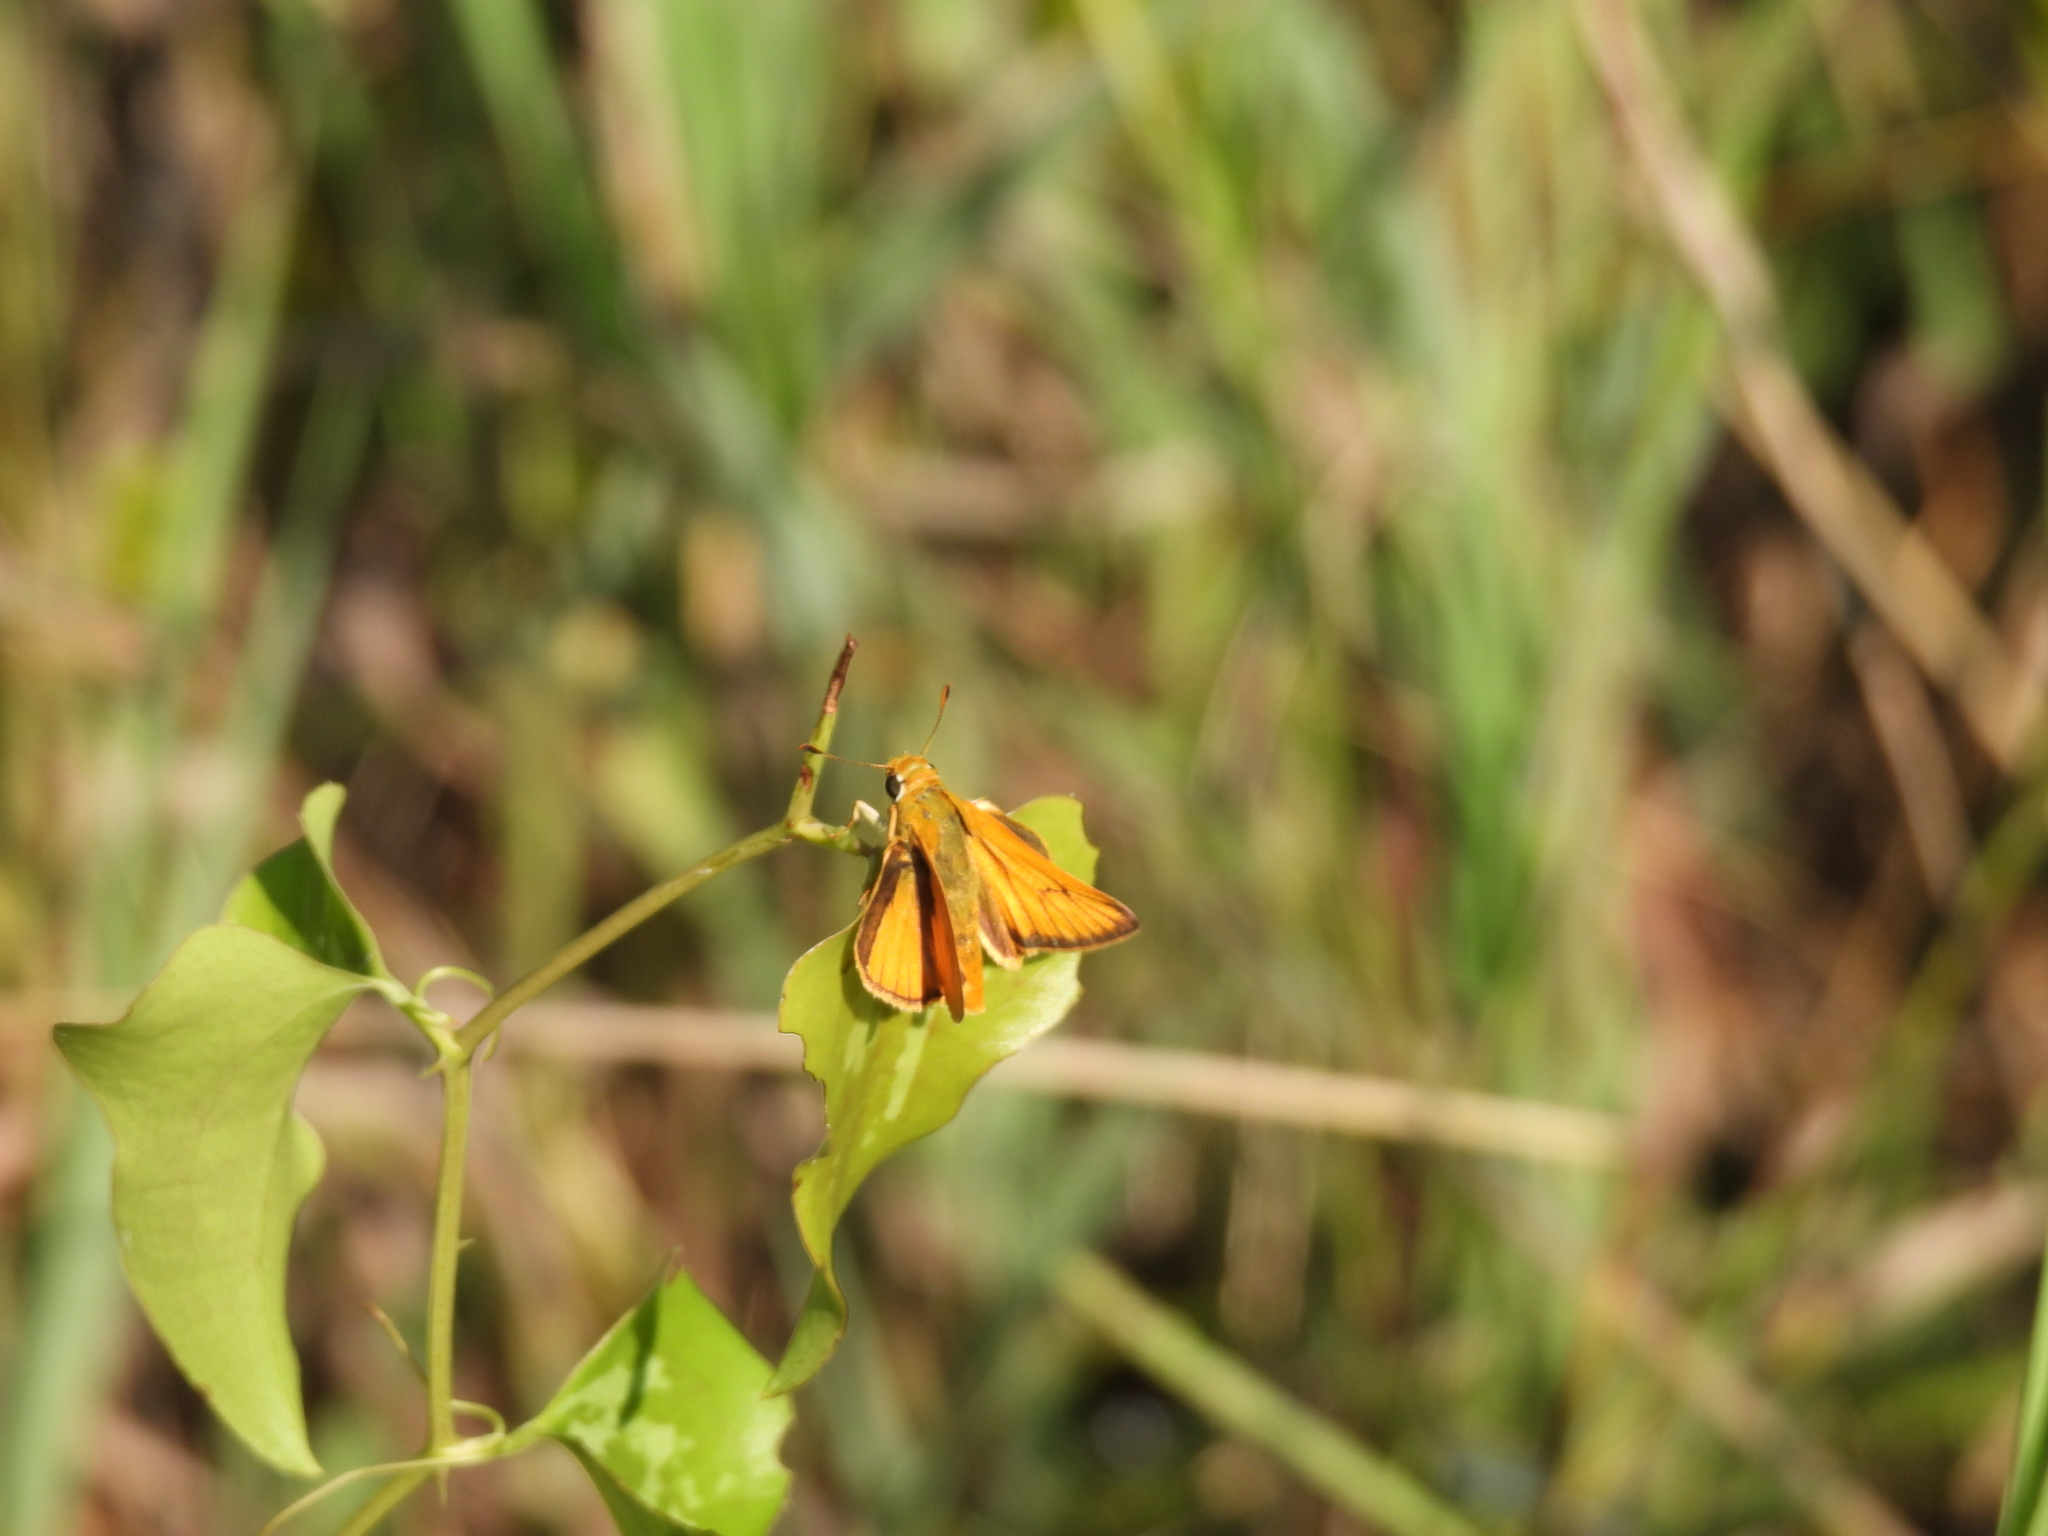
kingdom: Animalia
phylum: Arthropoda
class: Insecta
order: Lepidoptera
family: Hesperiidae
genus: Hylephila
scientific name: Hylephila phyleus
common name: Fiery skipper
